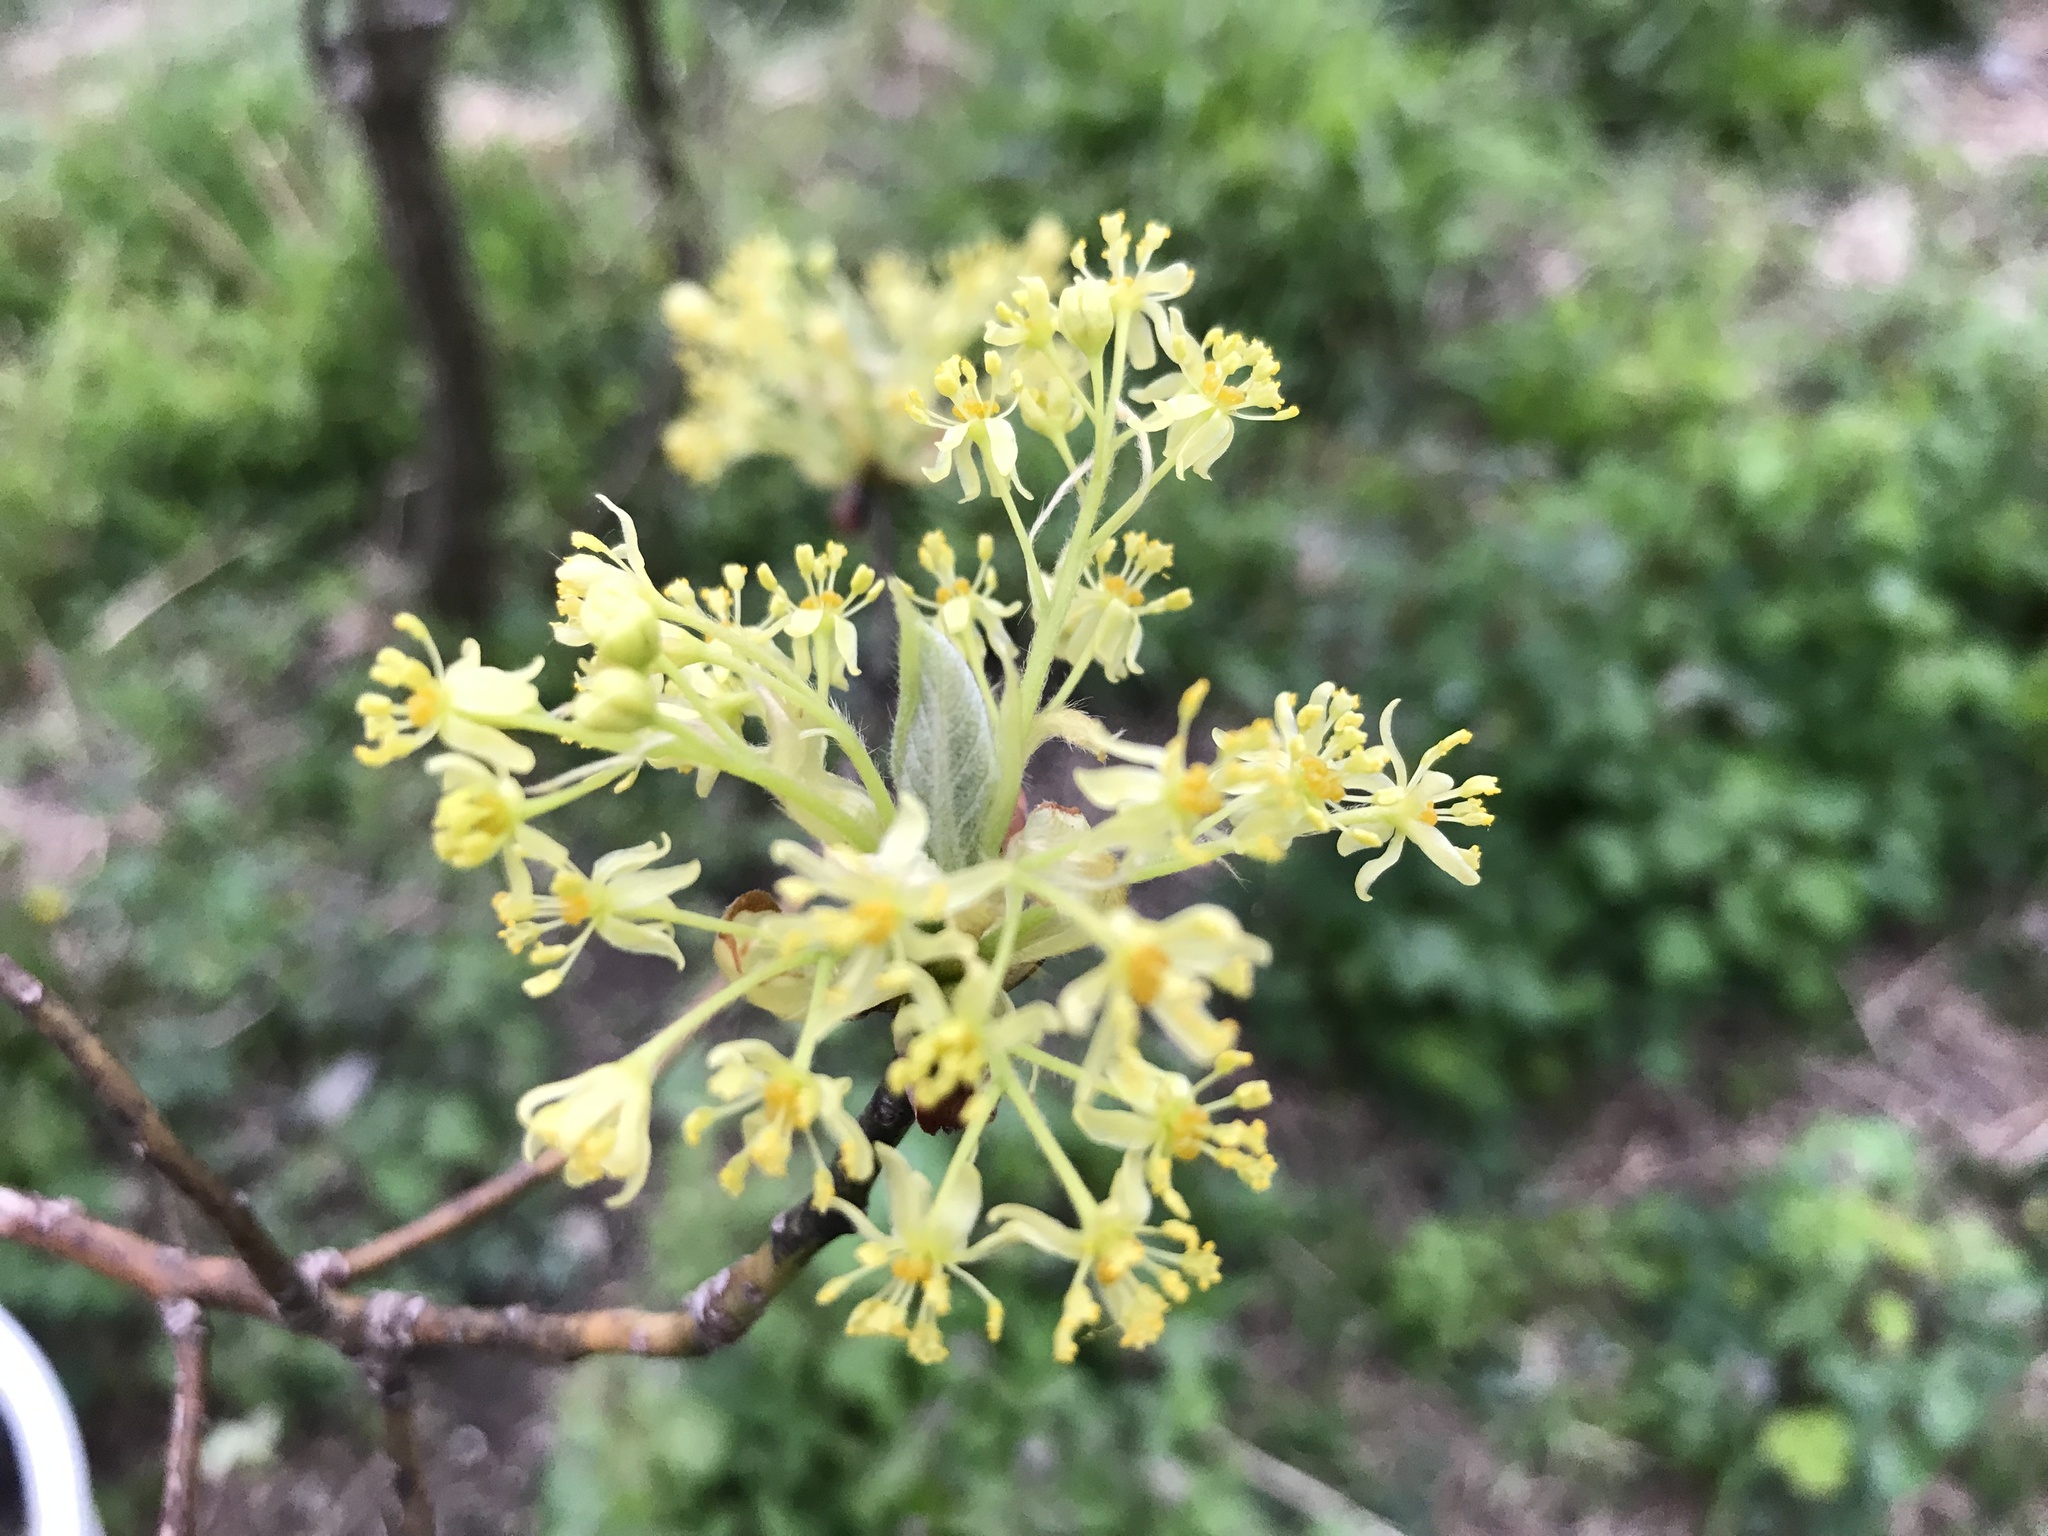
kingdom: Plantae
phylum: Tracheophyta
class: Magnoliopsida
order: Laurales
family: Lauraceae
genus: Sassafras
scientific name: Sassafras albidum
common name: Sassafras
